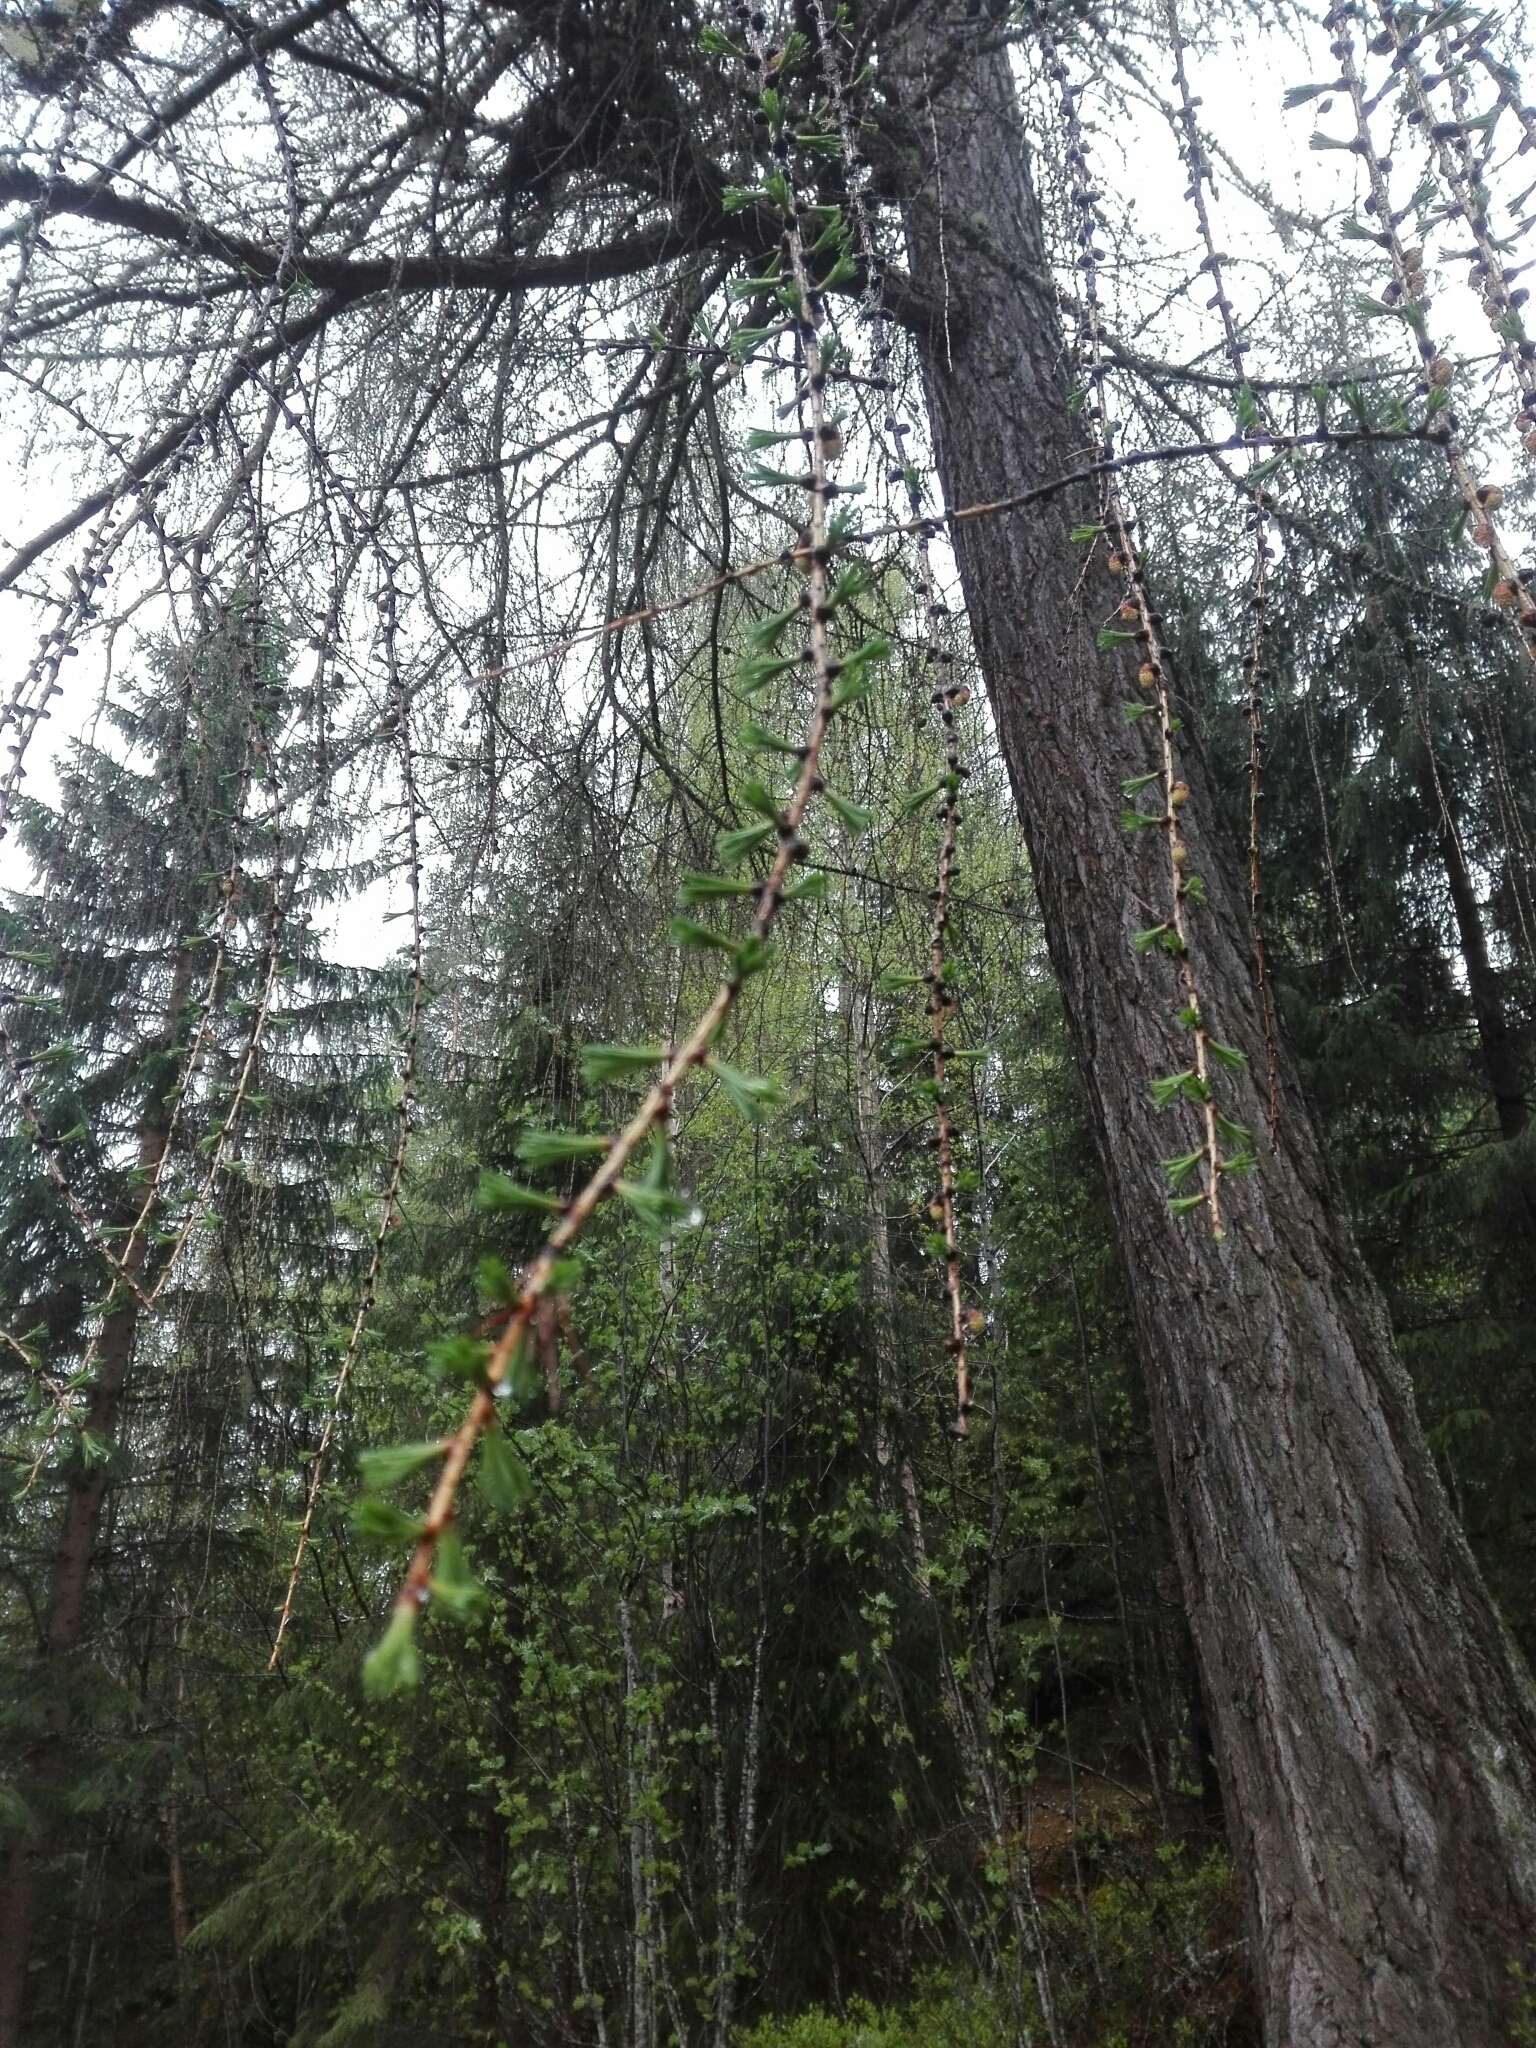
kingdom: Plantae
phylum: Tracheophyta
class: Pinopsida
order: Pinales
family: Pinaceae
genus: Larix
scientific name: Larix decidua
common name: European larch
